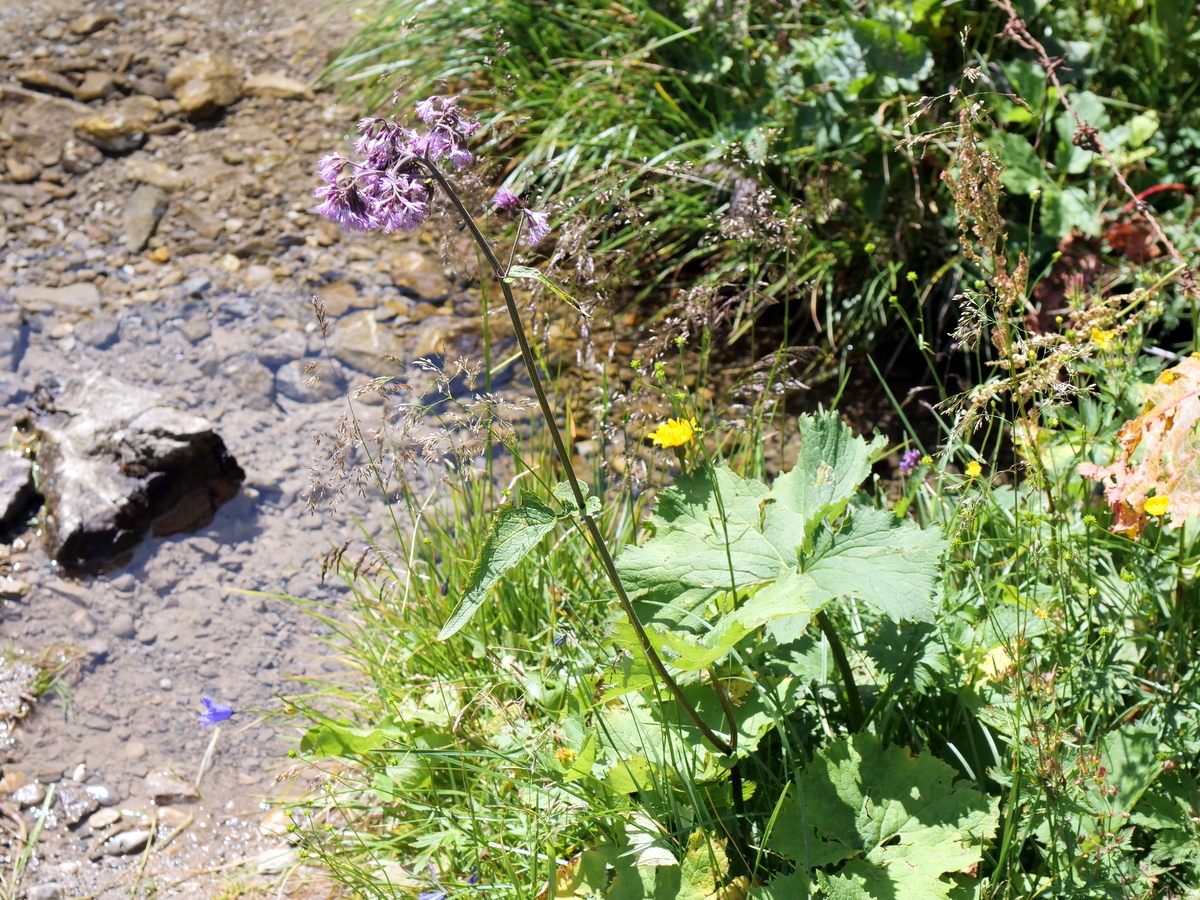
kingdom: Plantae
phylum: Tracheophyta
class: Magnoliopsida
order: Asterales
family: Asteraceae
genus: Adenostyles
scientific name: Adenostyles alliariae
